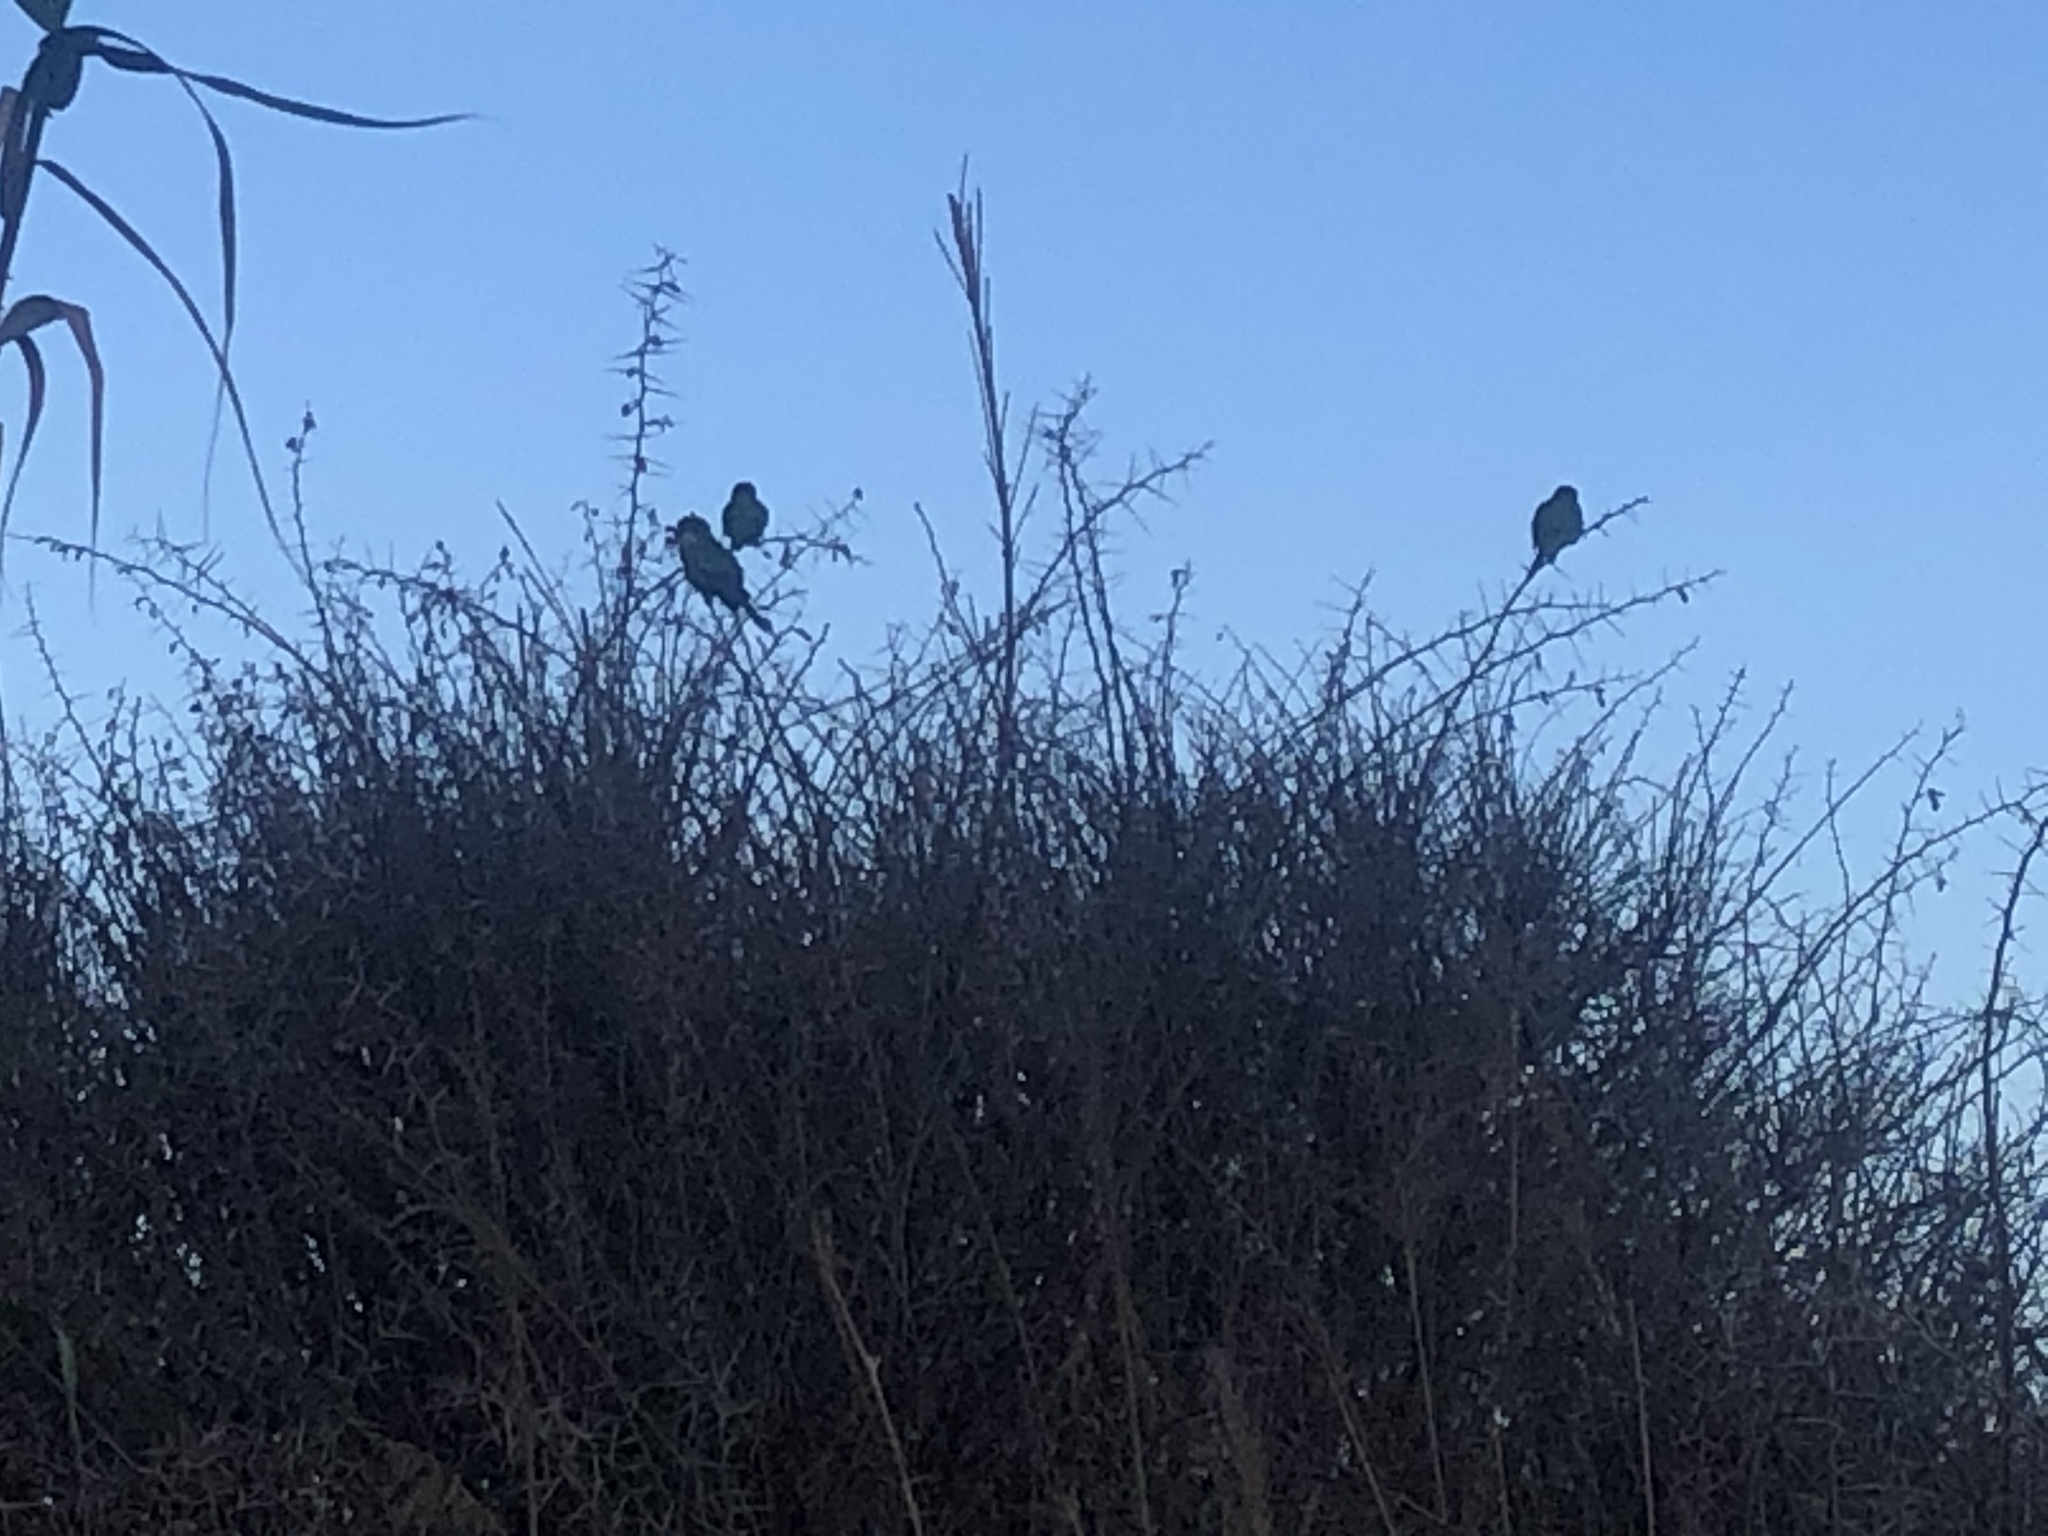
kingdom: Animalia
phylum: Chordata
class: Aves
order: Psittaciformes
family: Psittacidae
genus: Myiopsitta
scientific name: Myiopsitta monachus
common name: Monk parakeet
